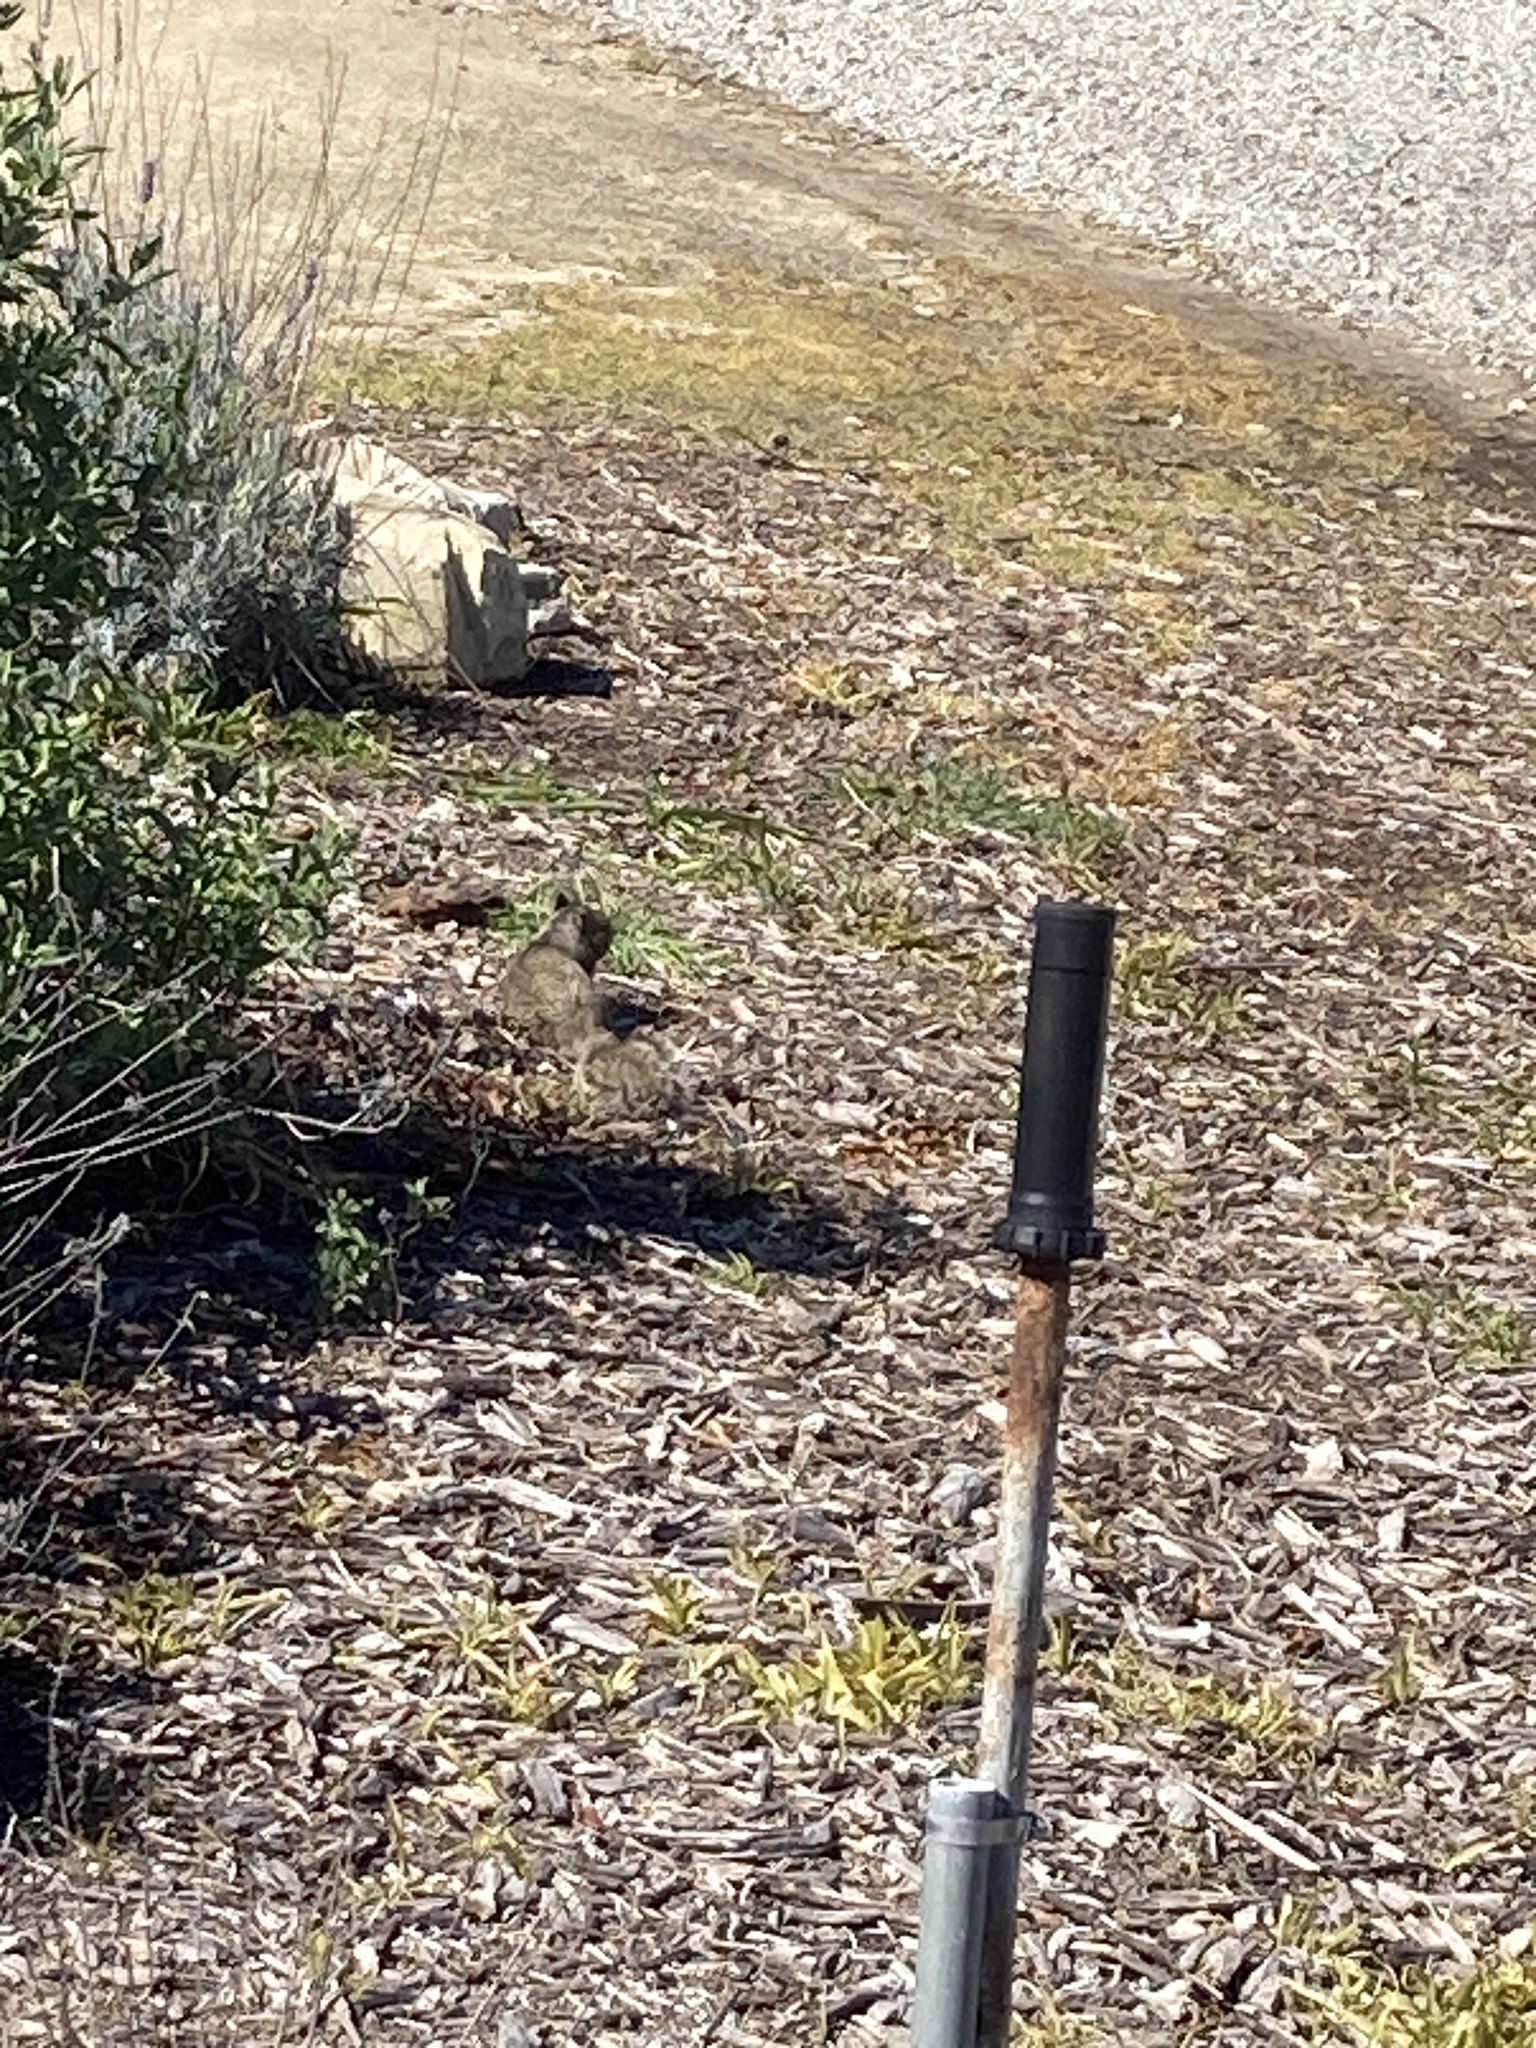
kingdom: Animalia
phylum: Chordata
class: Mammalia
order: Rodentia
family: Sciuridae
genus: Otospermophilus
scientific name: Otospermophilus beecheyi
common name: California ground squirrel
